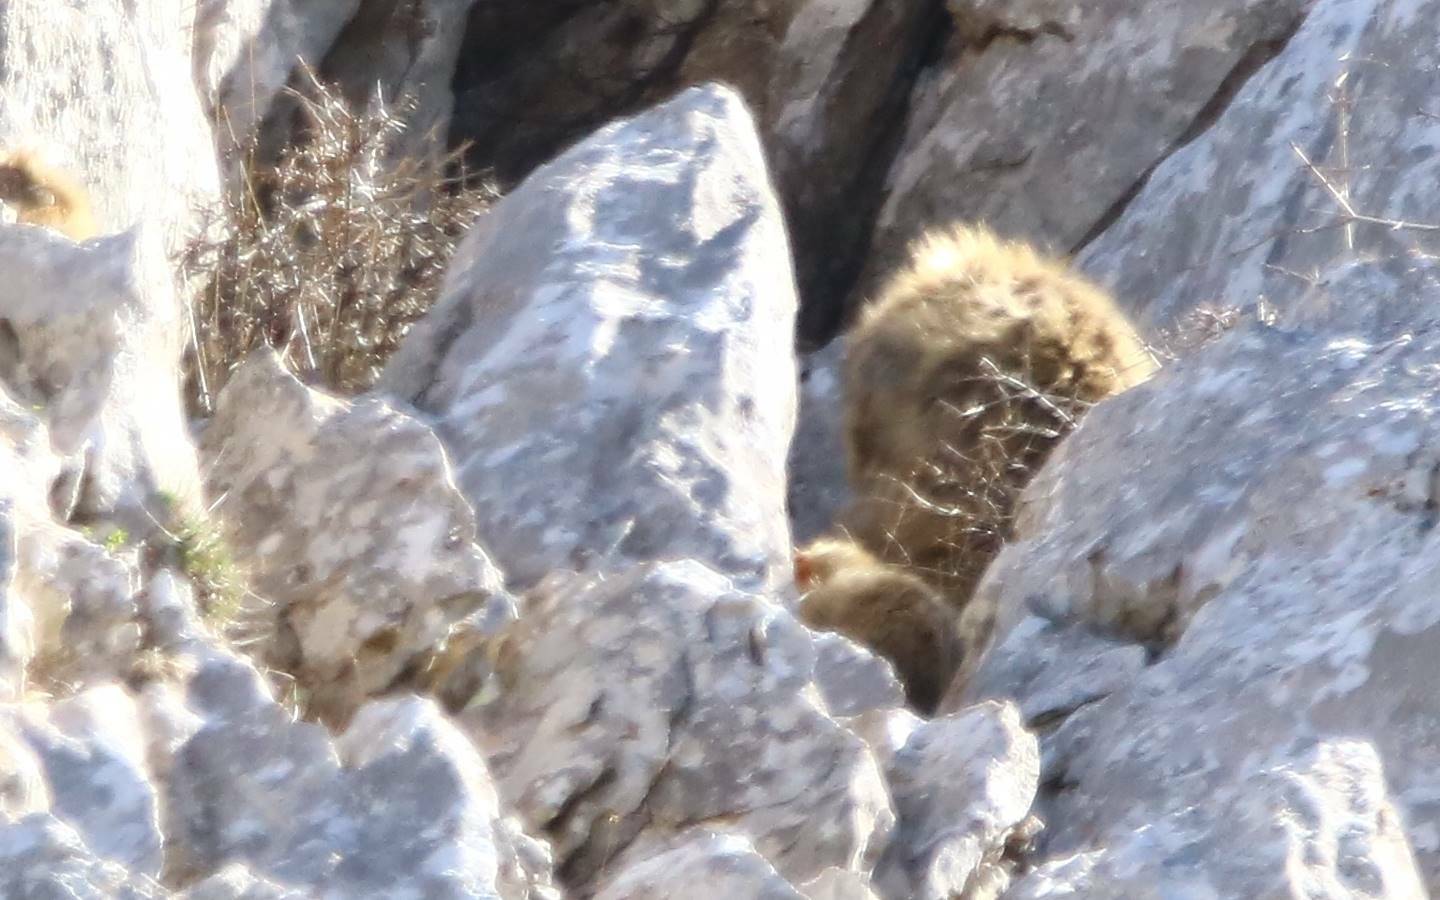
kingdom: Animalia
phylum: Chordata
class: Mammalia
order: Primates
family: Cercopithecidae
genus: Macaca
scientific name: Macaca sylvanus
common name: Barbary macaque
